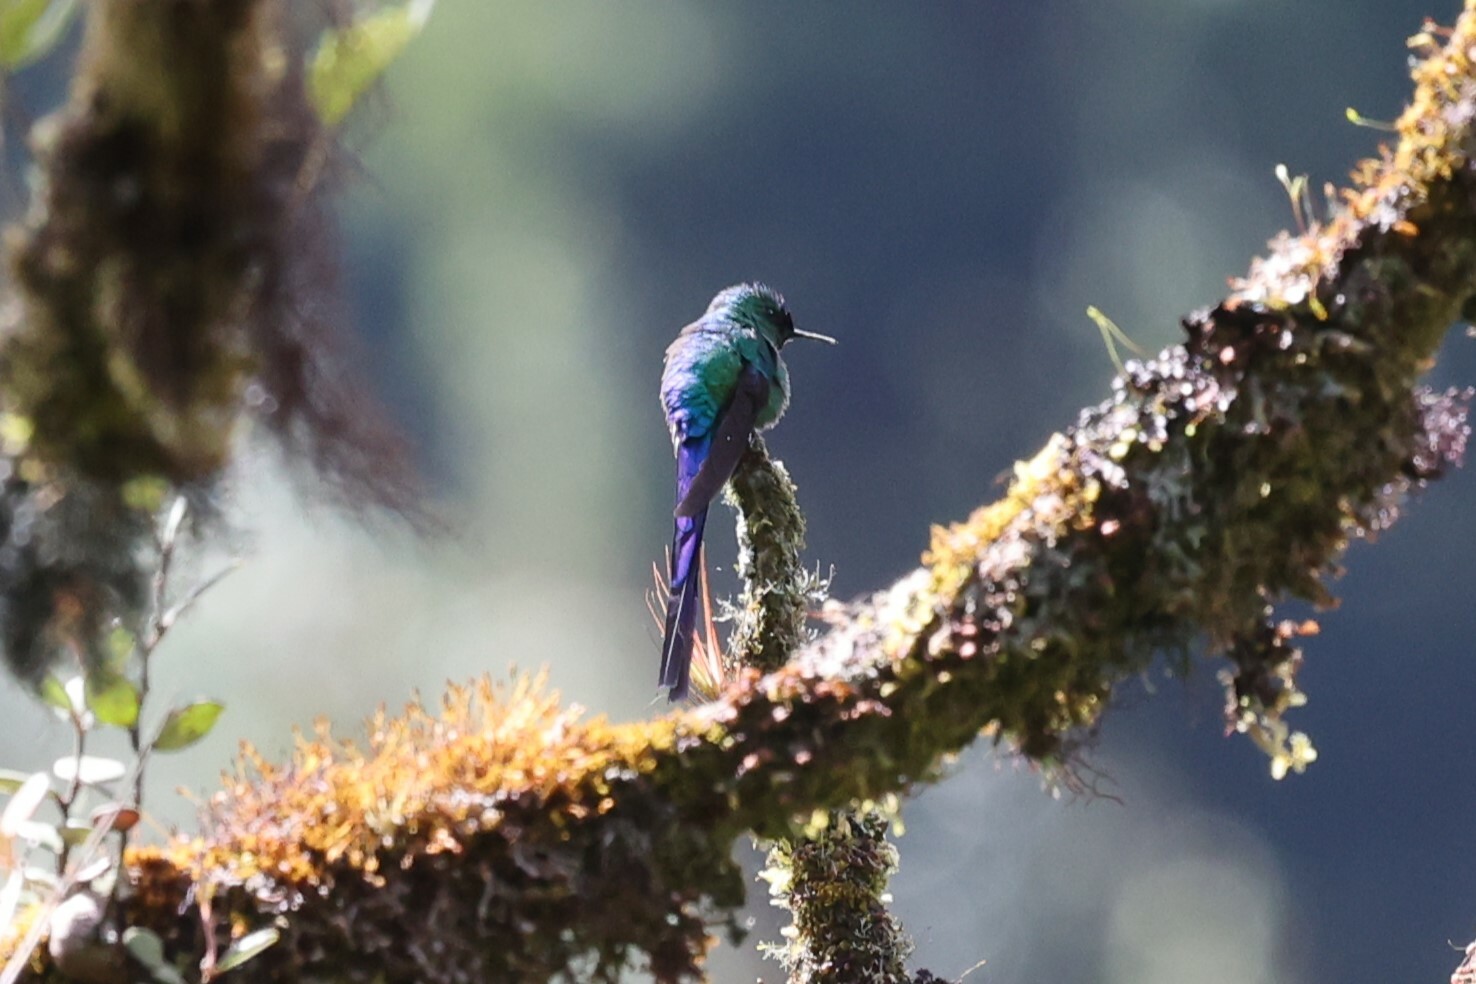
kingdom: Animalia
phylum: Chordata
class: Aves
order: Apodiformes
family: Trochilidae
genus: Aglaiocercus
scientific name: Aglaiocercus kingii
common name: Long-tailed sylph
